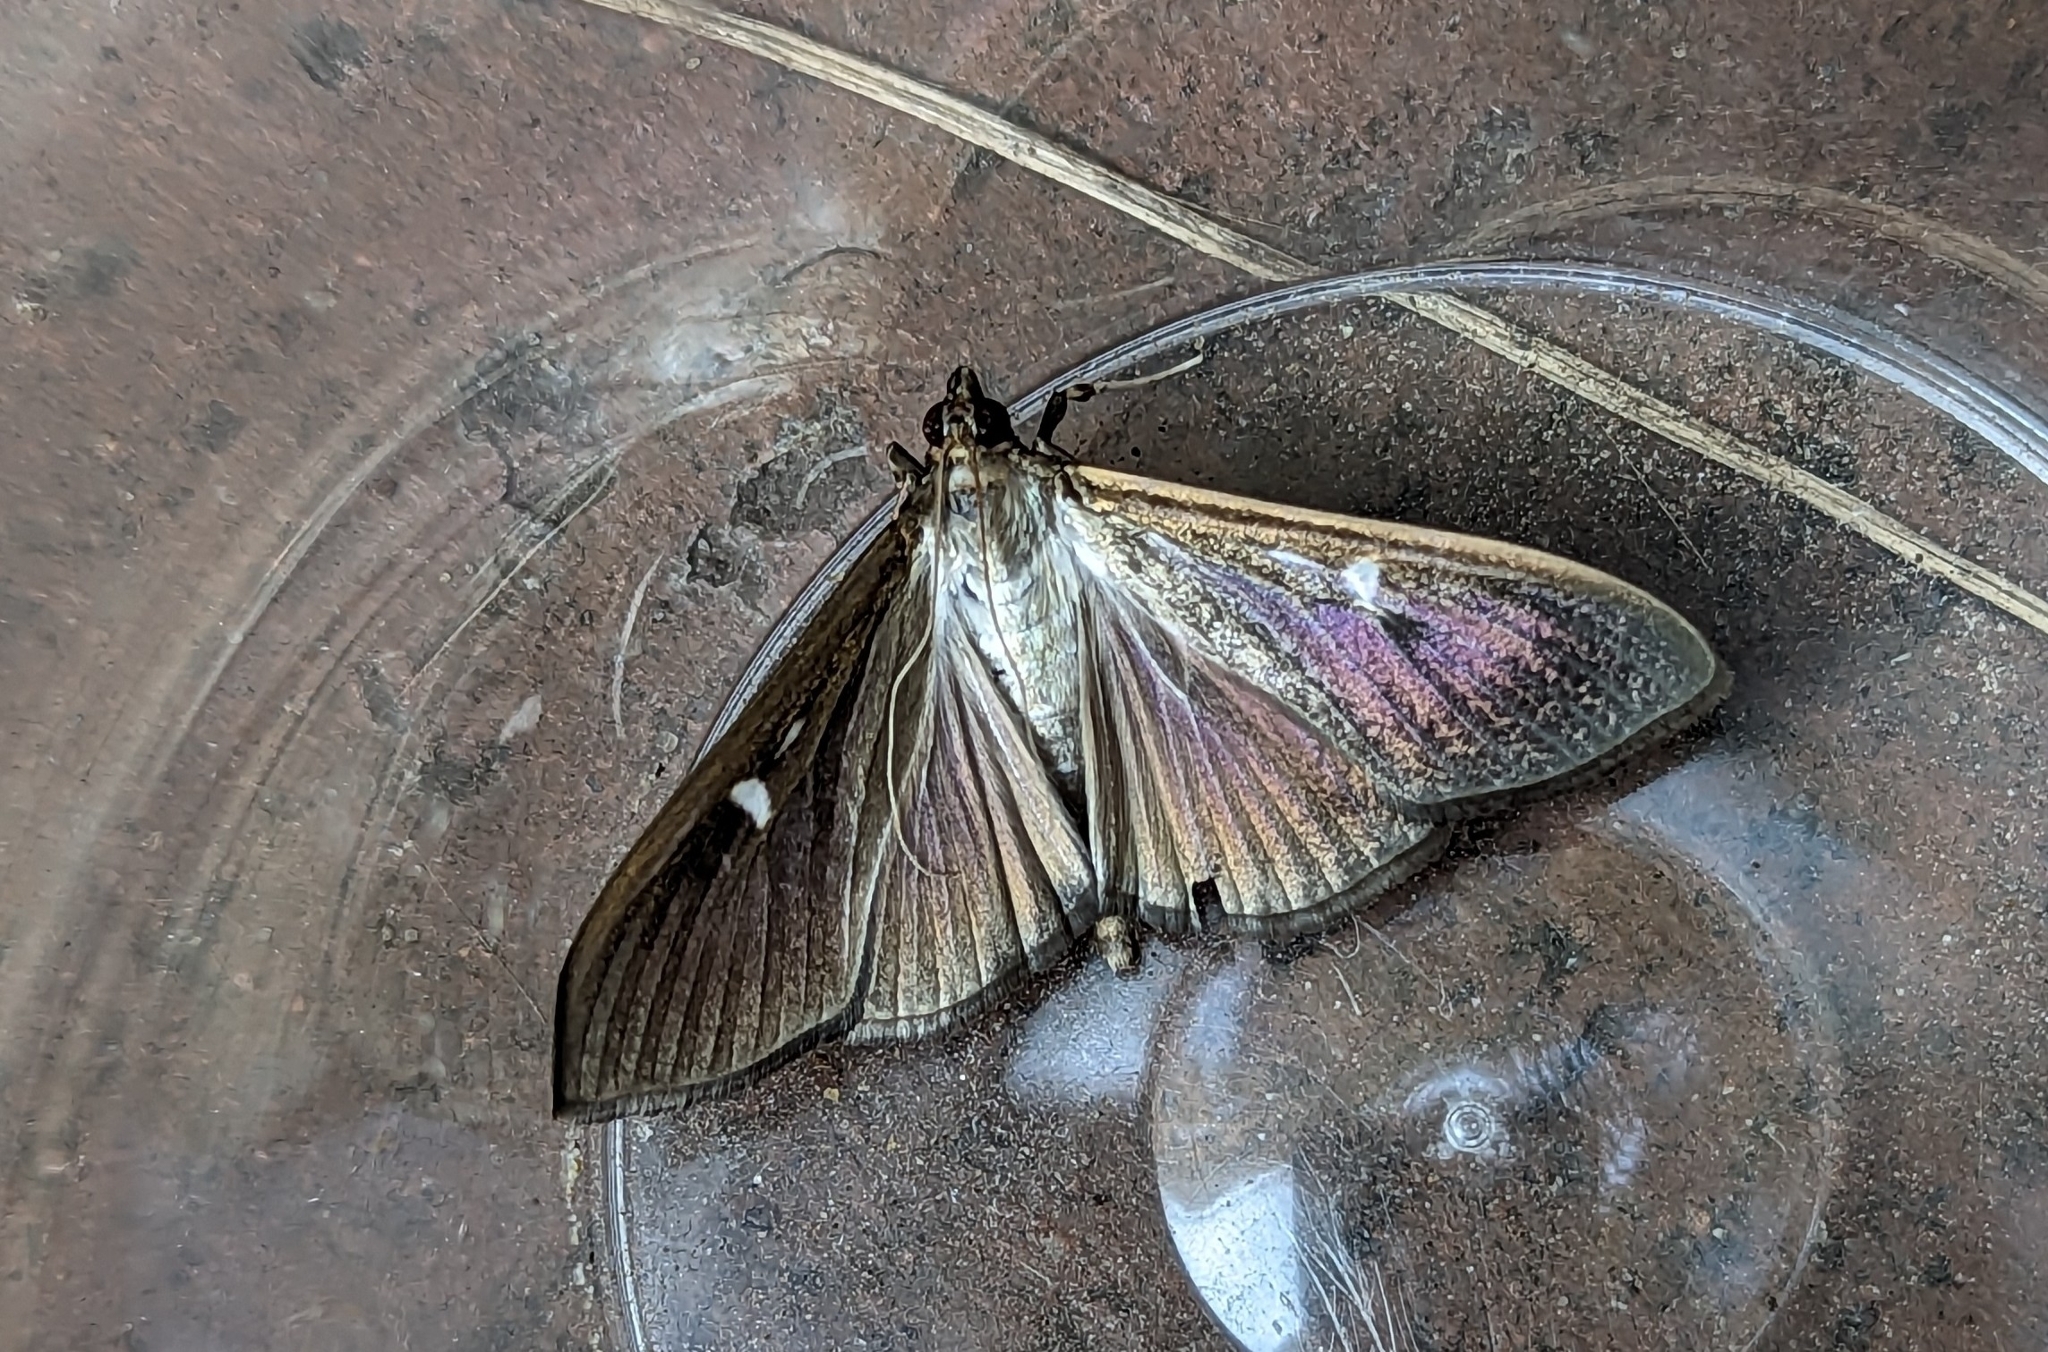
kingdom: Animalia
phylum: Arthropoda
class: Insecta
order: Lepidoptera
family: Crambidae
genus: Cydalima
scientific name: Cydalima perspectalis
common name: Box tree moth
